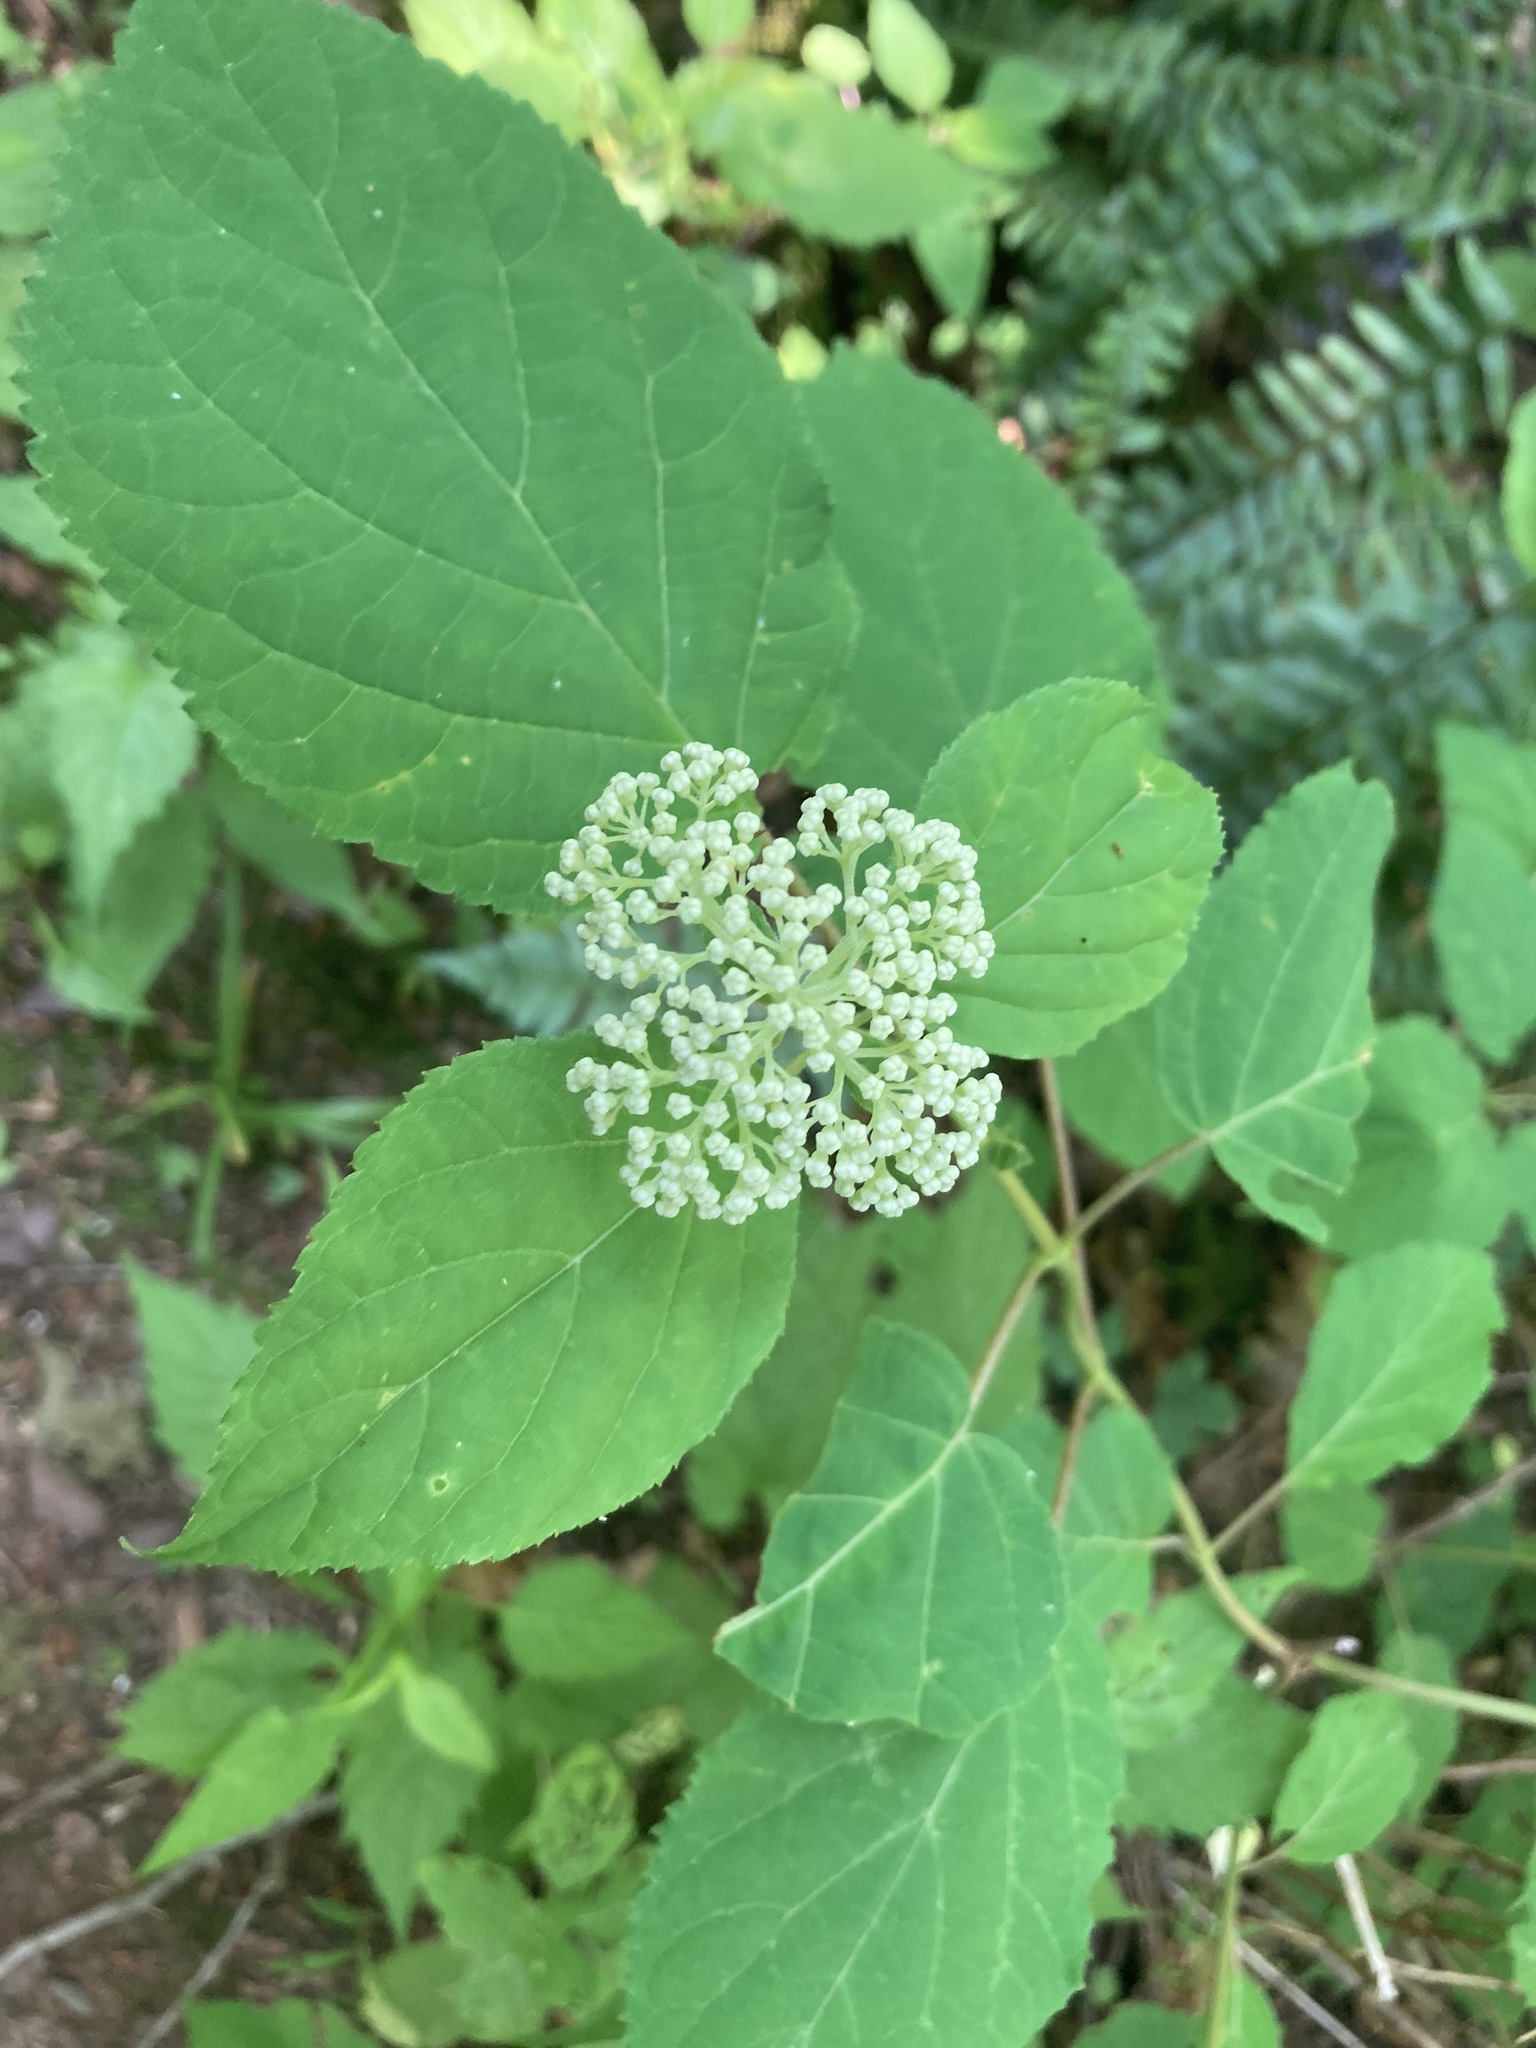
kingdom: Plantae
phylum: Tracheophyta
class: Magnoliopsida
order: Cornales
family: Hydrangeaceae
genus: Hydrangea
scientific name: Hydrangea arborescens
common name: Sevenbark
